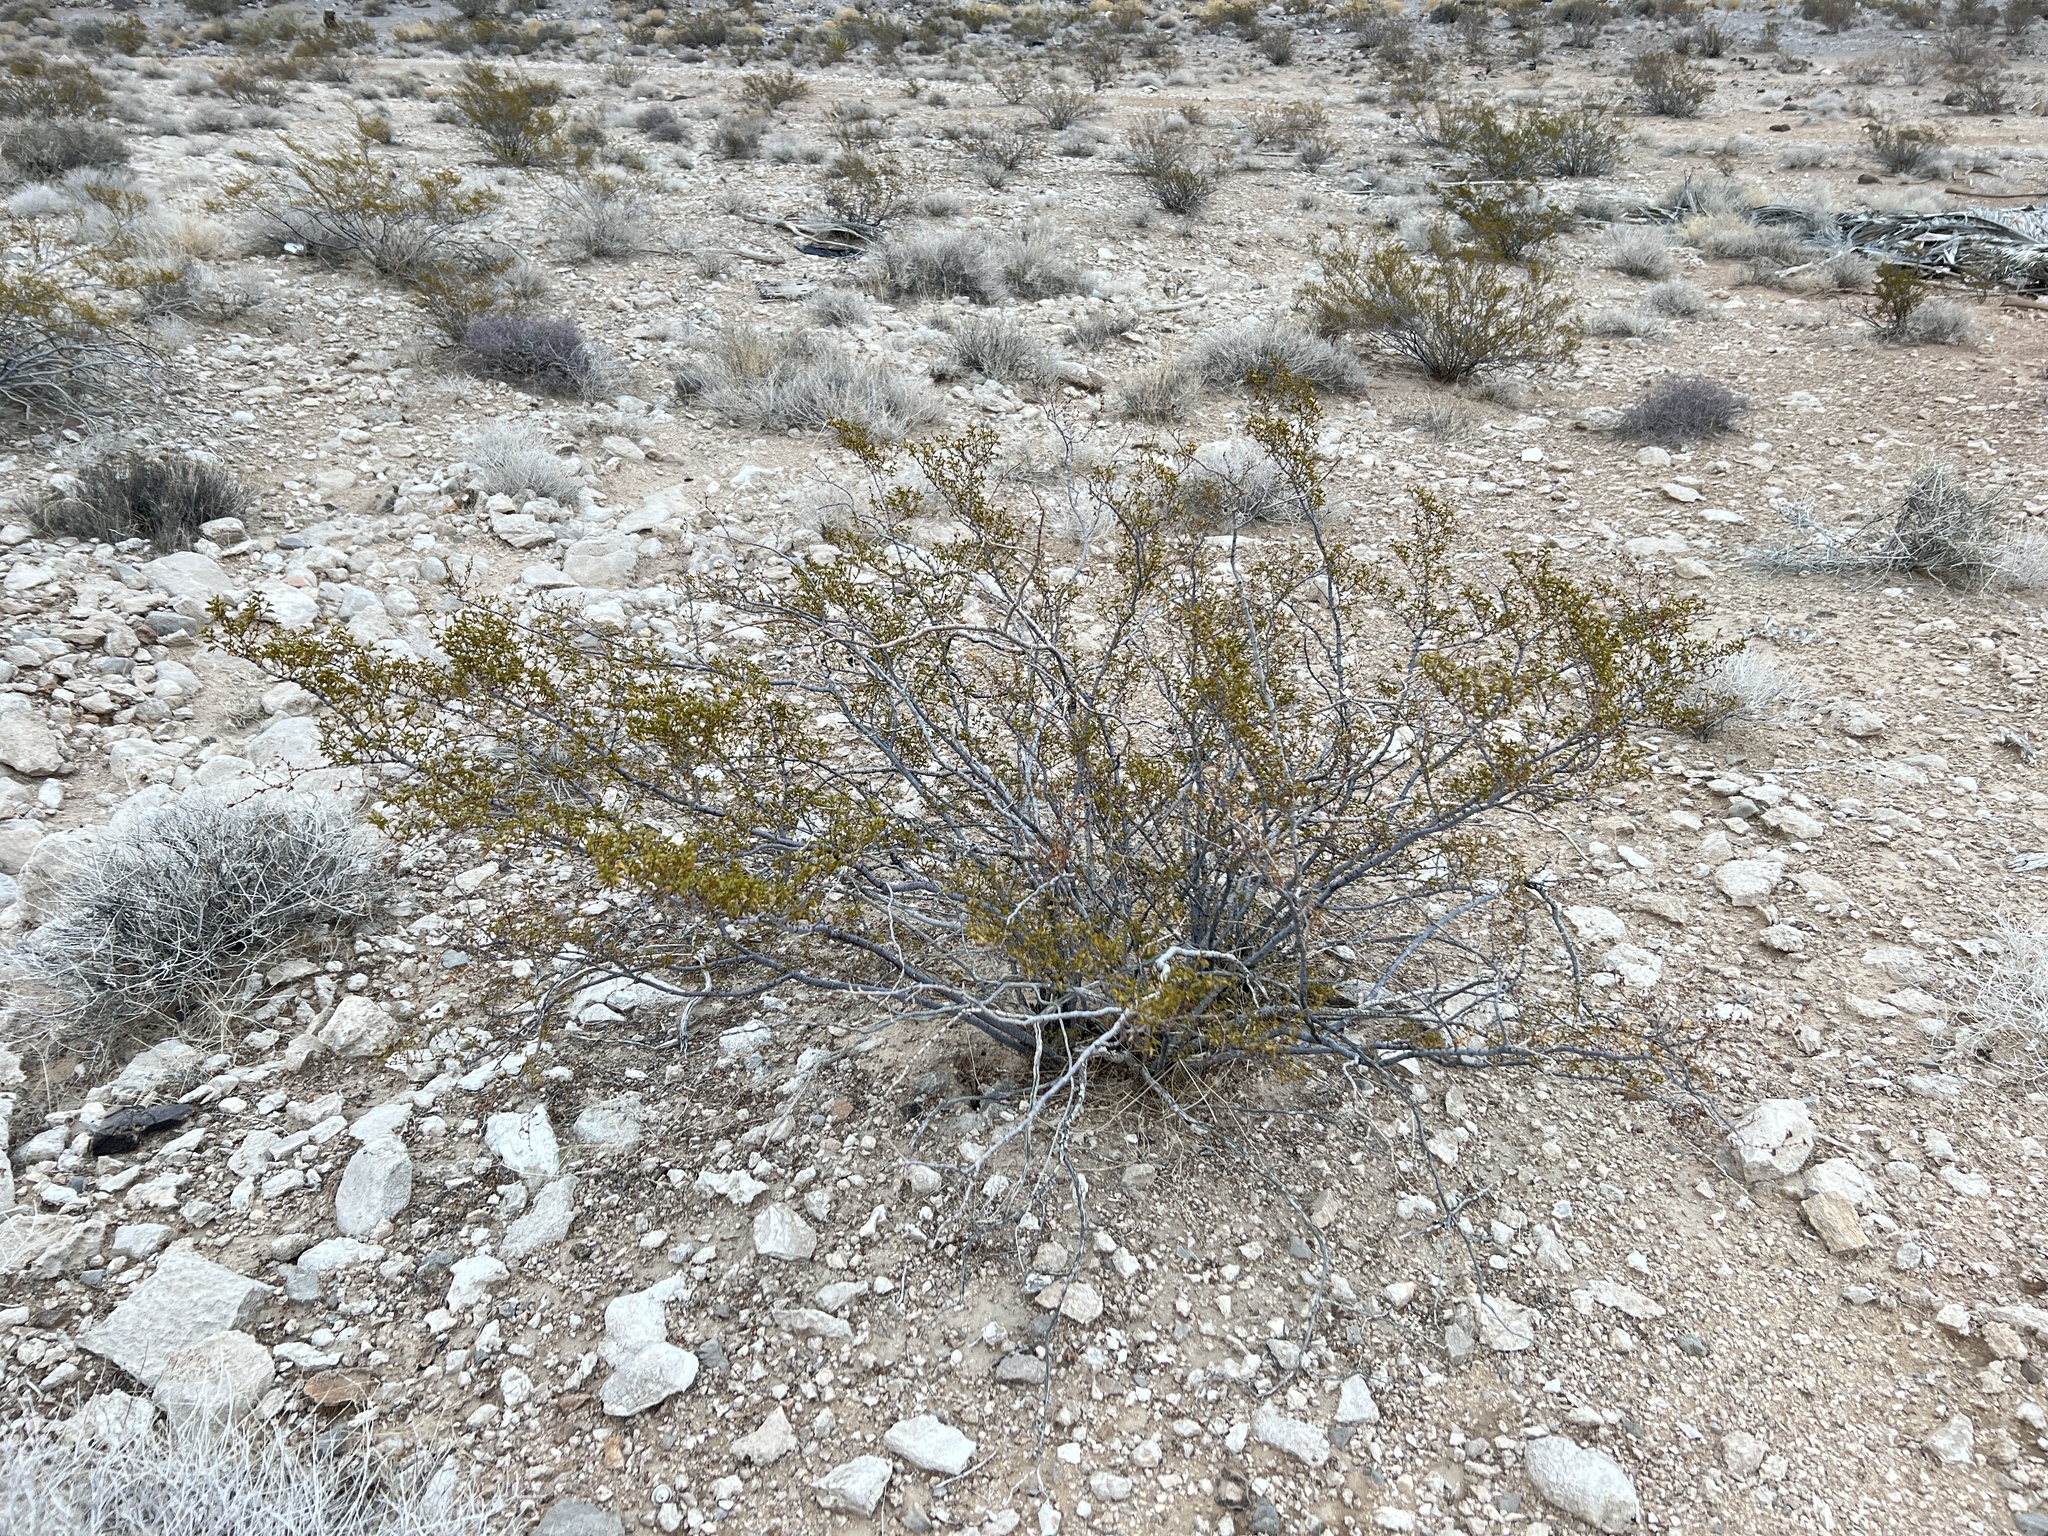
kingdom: Plantae
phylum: Tracheophyta
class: Magnoliopsida
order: Zygophyllales
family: Zygophyllaceae
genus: Larrea
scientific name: Larrea tridentata
